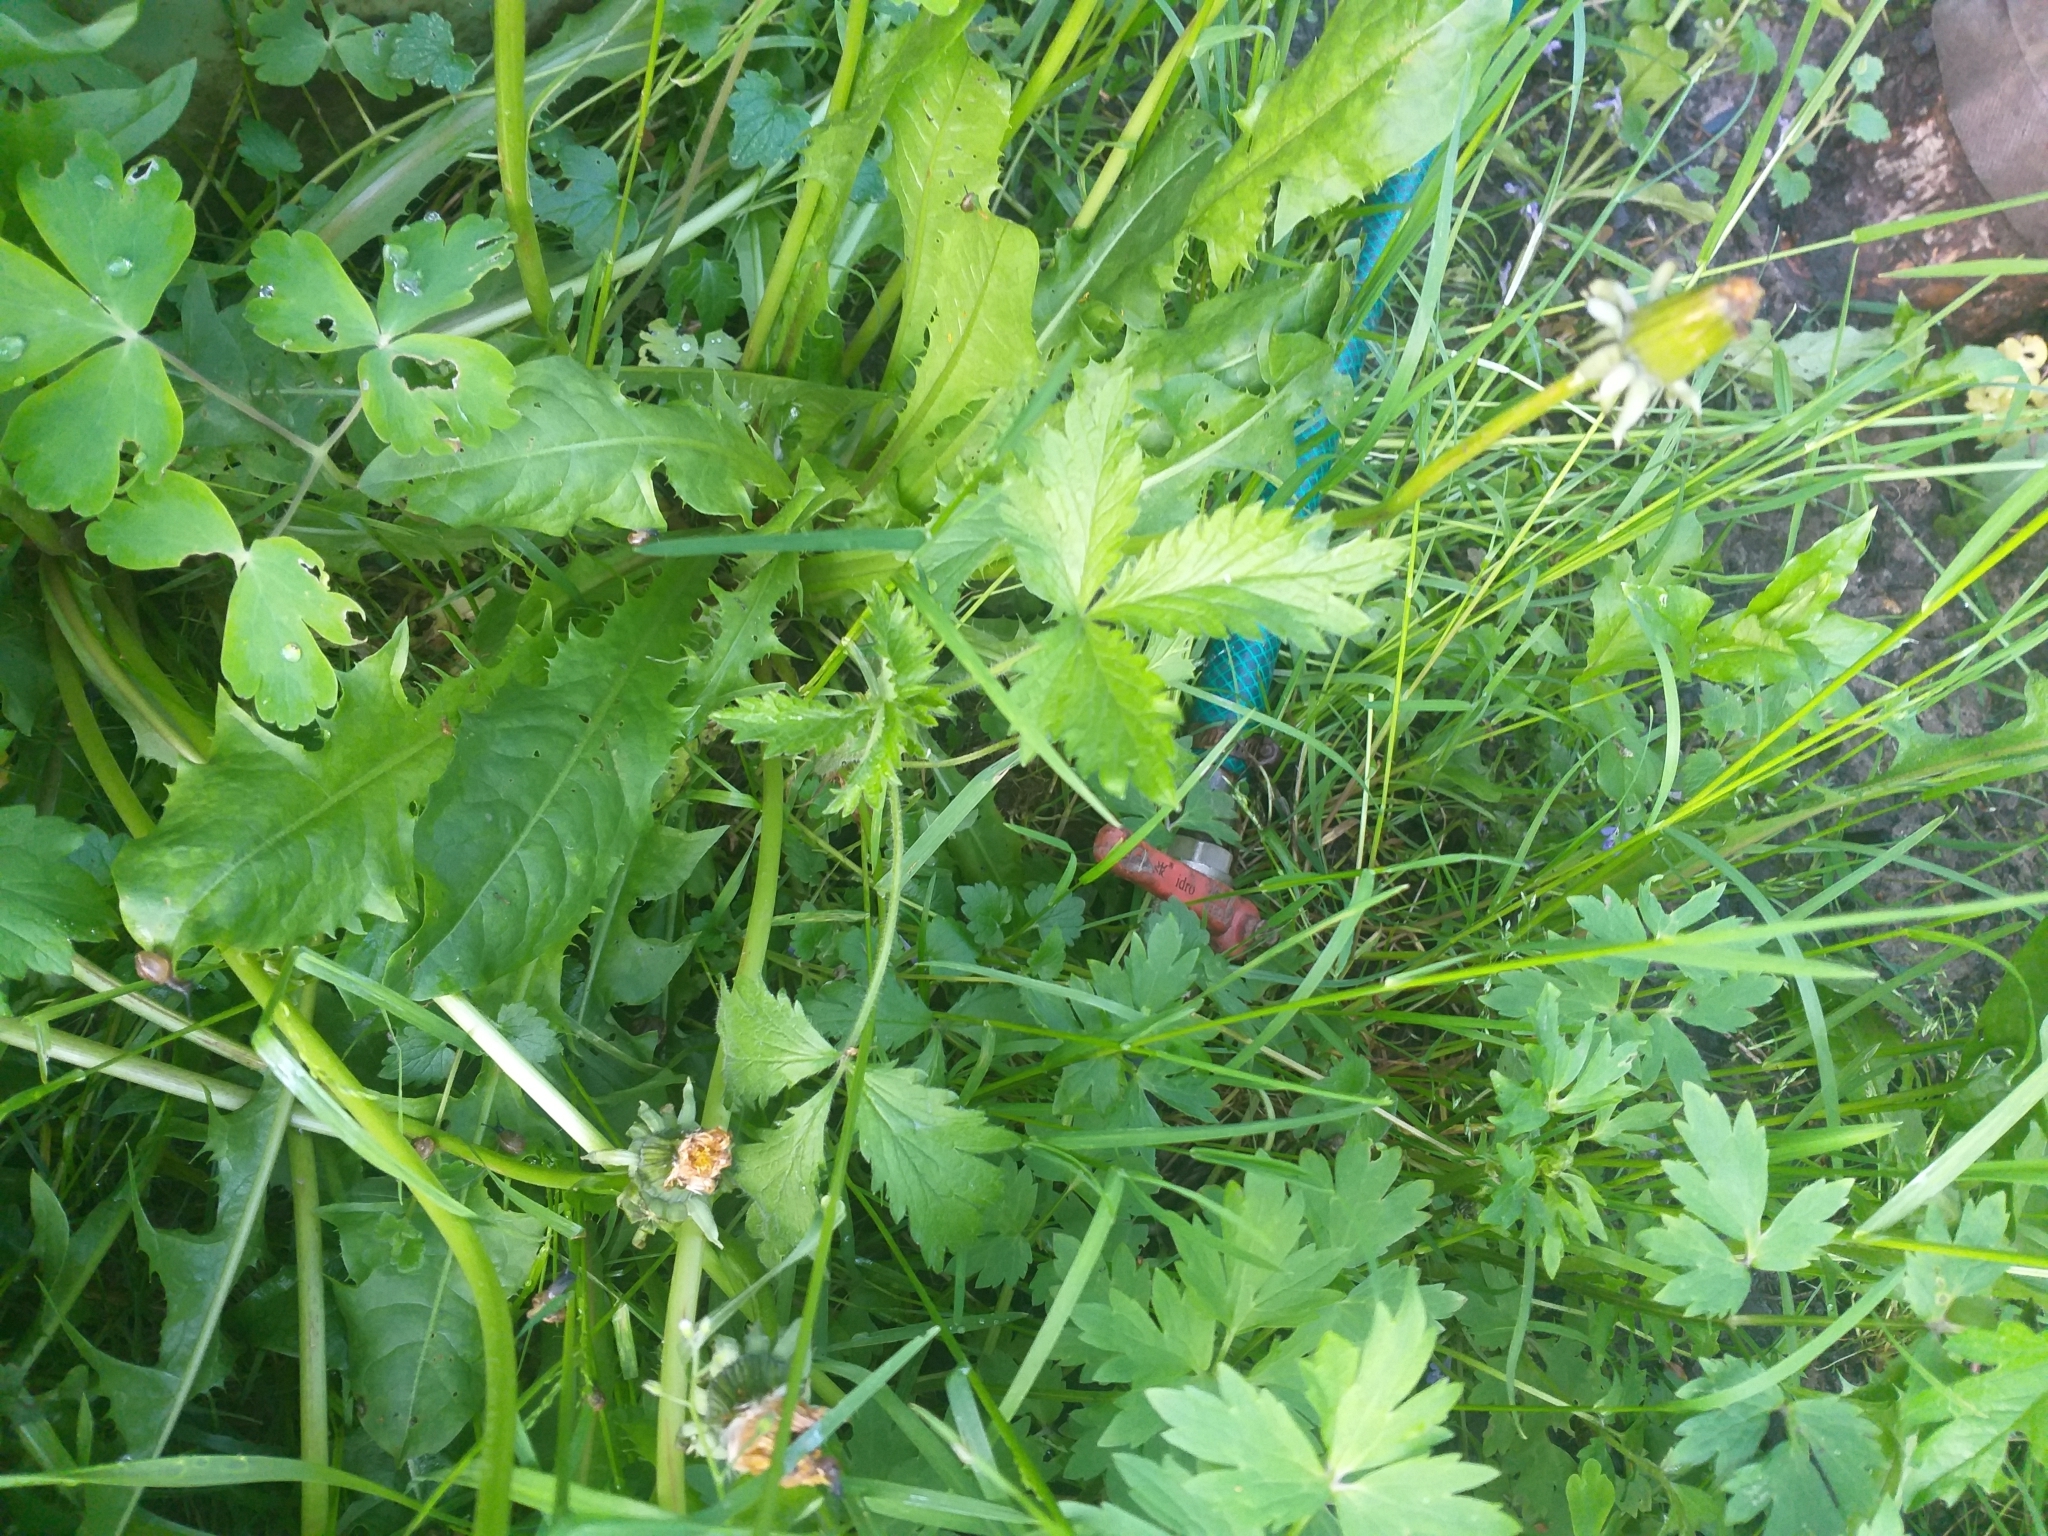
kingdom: Plantae
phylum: Tracheophyta
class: Magnoliopsida
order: Rosales
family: Rosaceae
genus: Potentilla
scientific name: Potentilla norvegica
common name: Ternate-leaved cinquefoil
